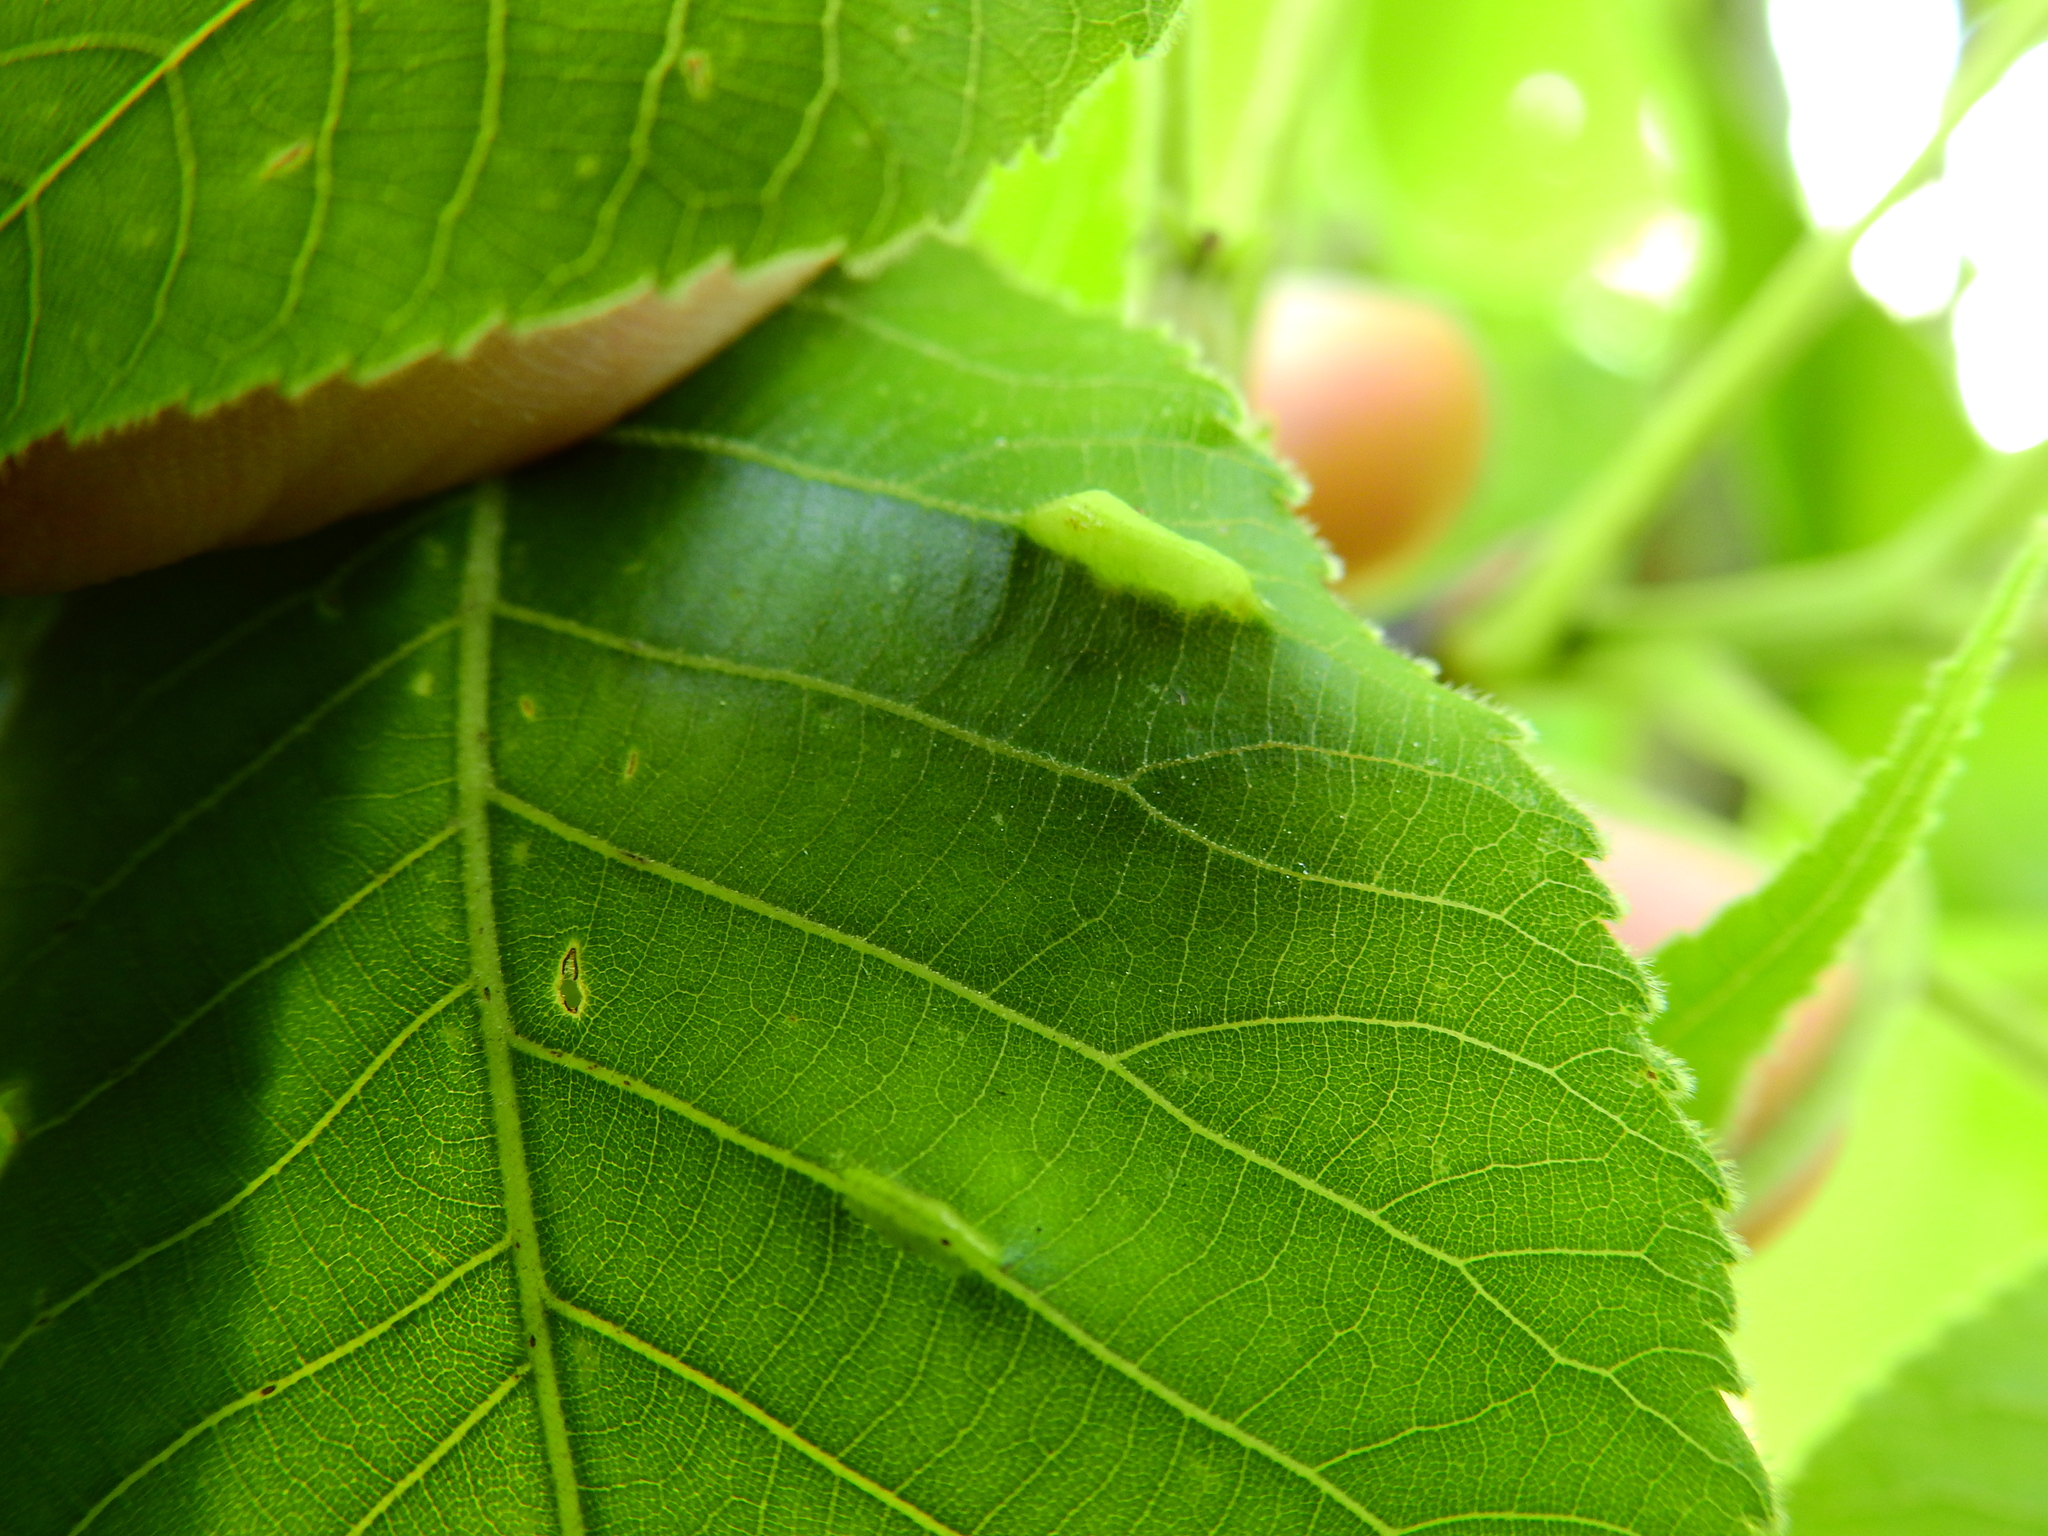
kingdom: Animalia
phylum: Arthropoda
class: Insecta
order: Hemiptera
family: Phylloxeridae
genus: Phylloxera
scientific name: Phylloxera caryaevenae
